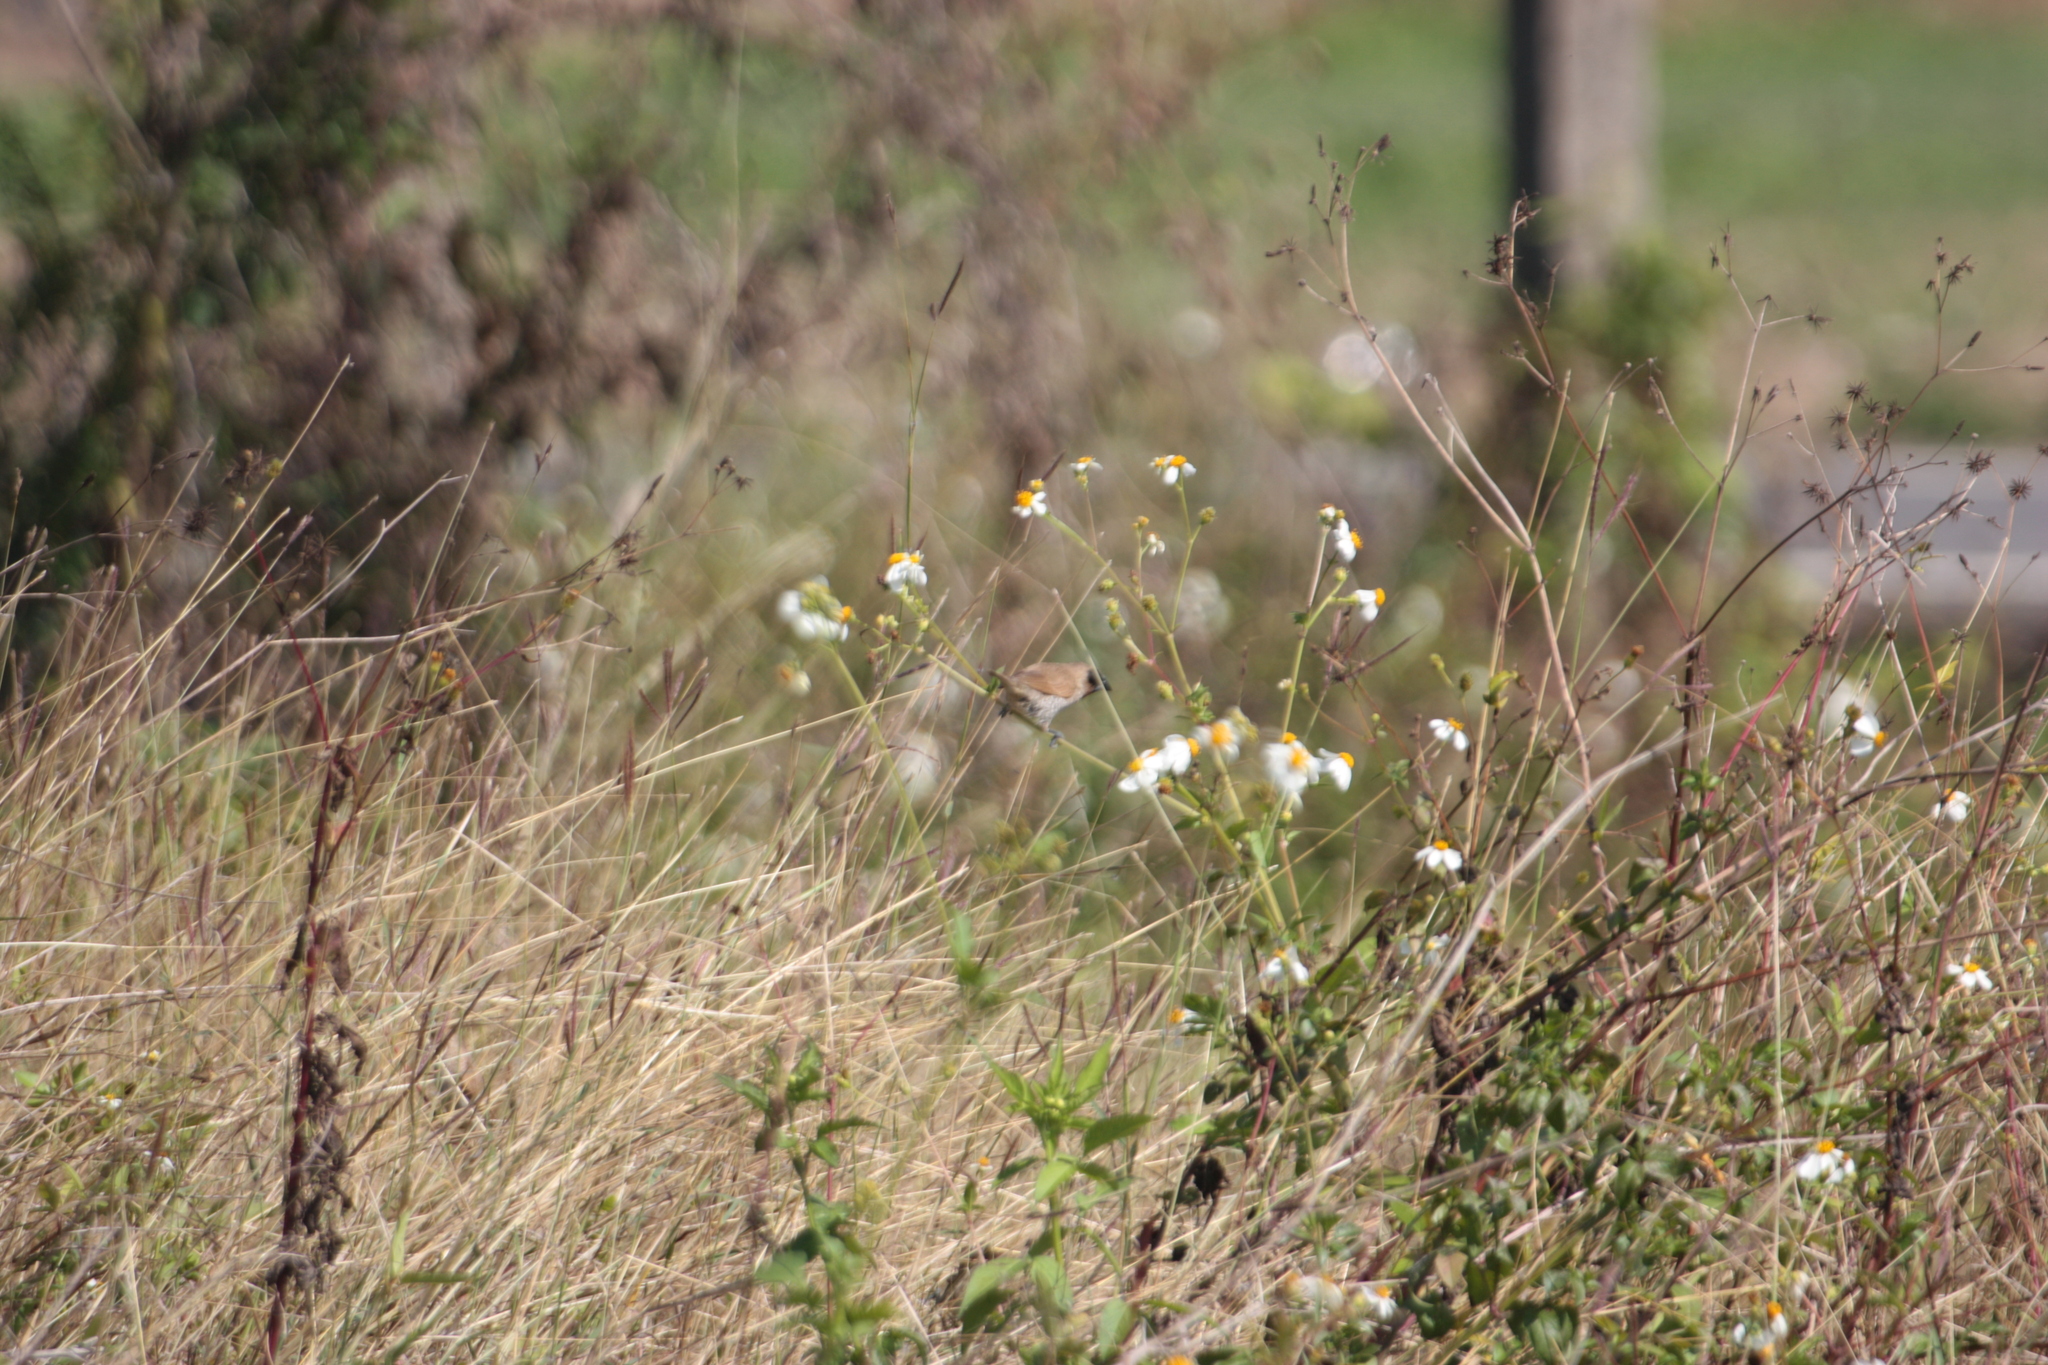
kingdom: Animalia
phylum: Chordata
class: Aves
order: Passeriformes
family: Estrildidae
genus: Lonchura
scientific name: Lonchura punctulata
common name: Scaly-breasted munia
